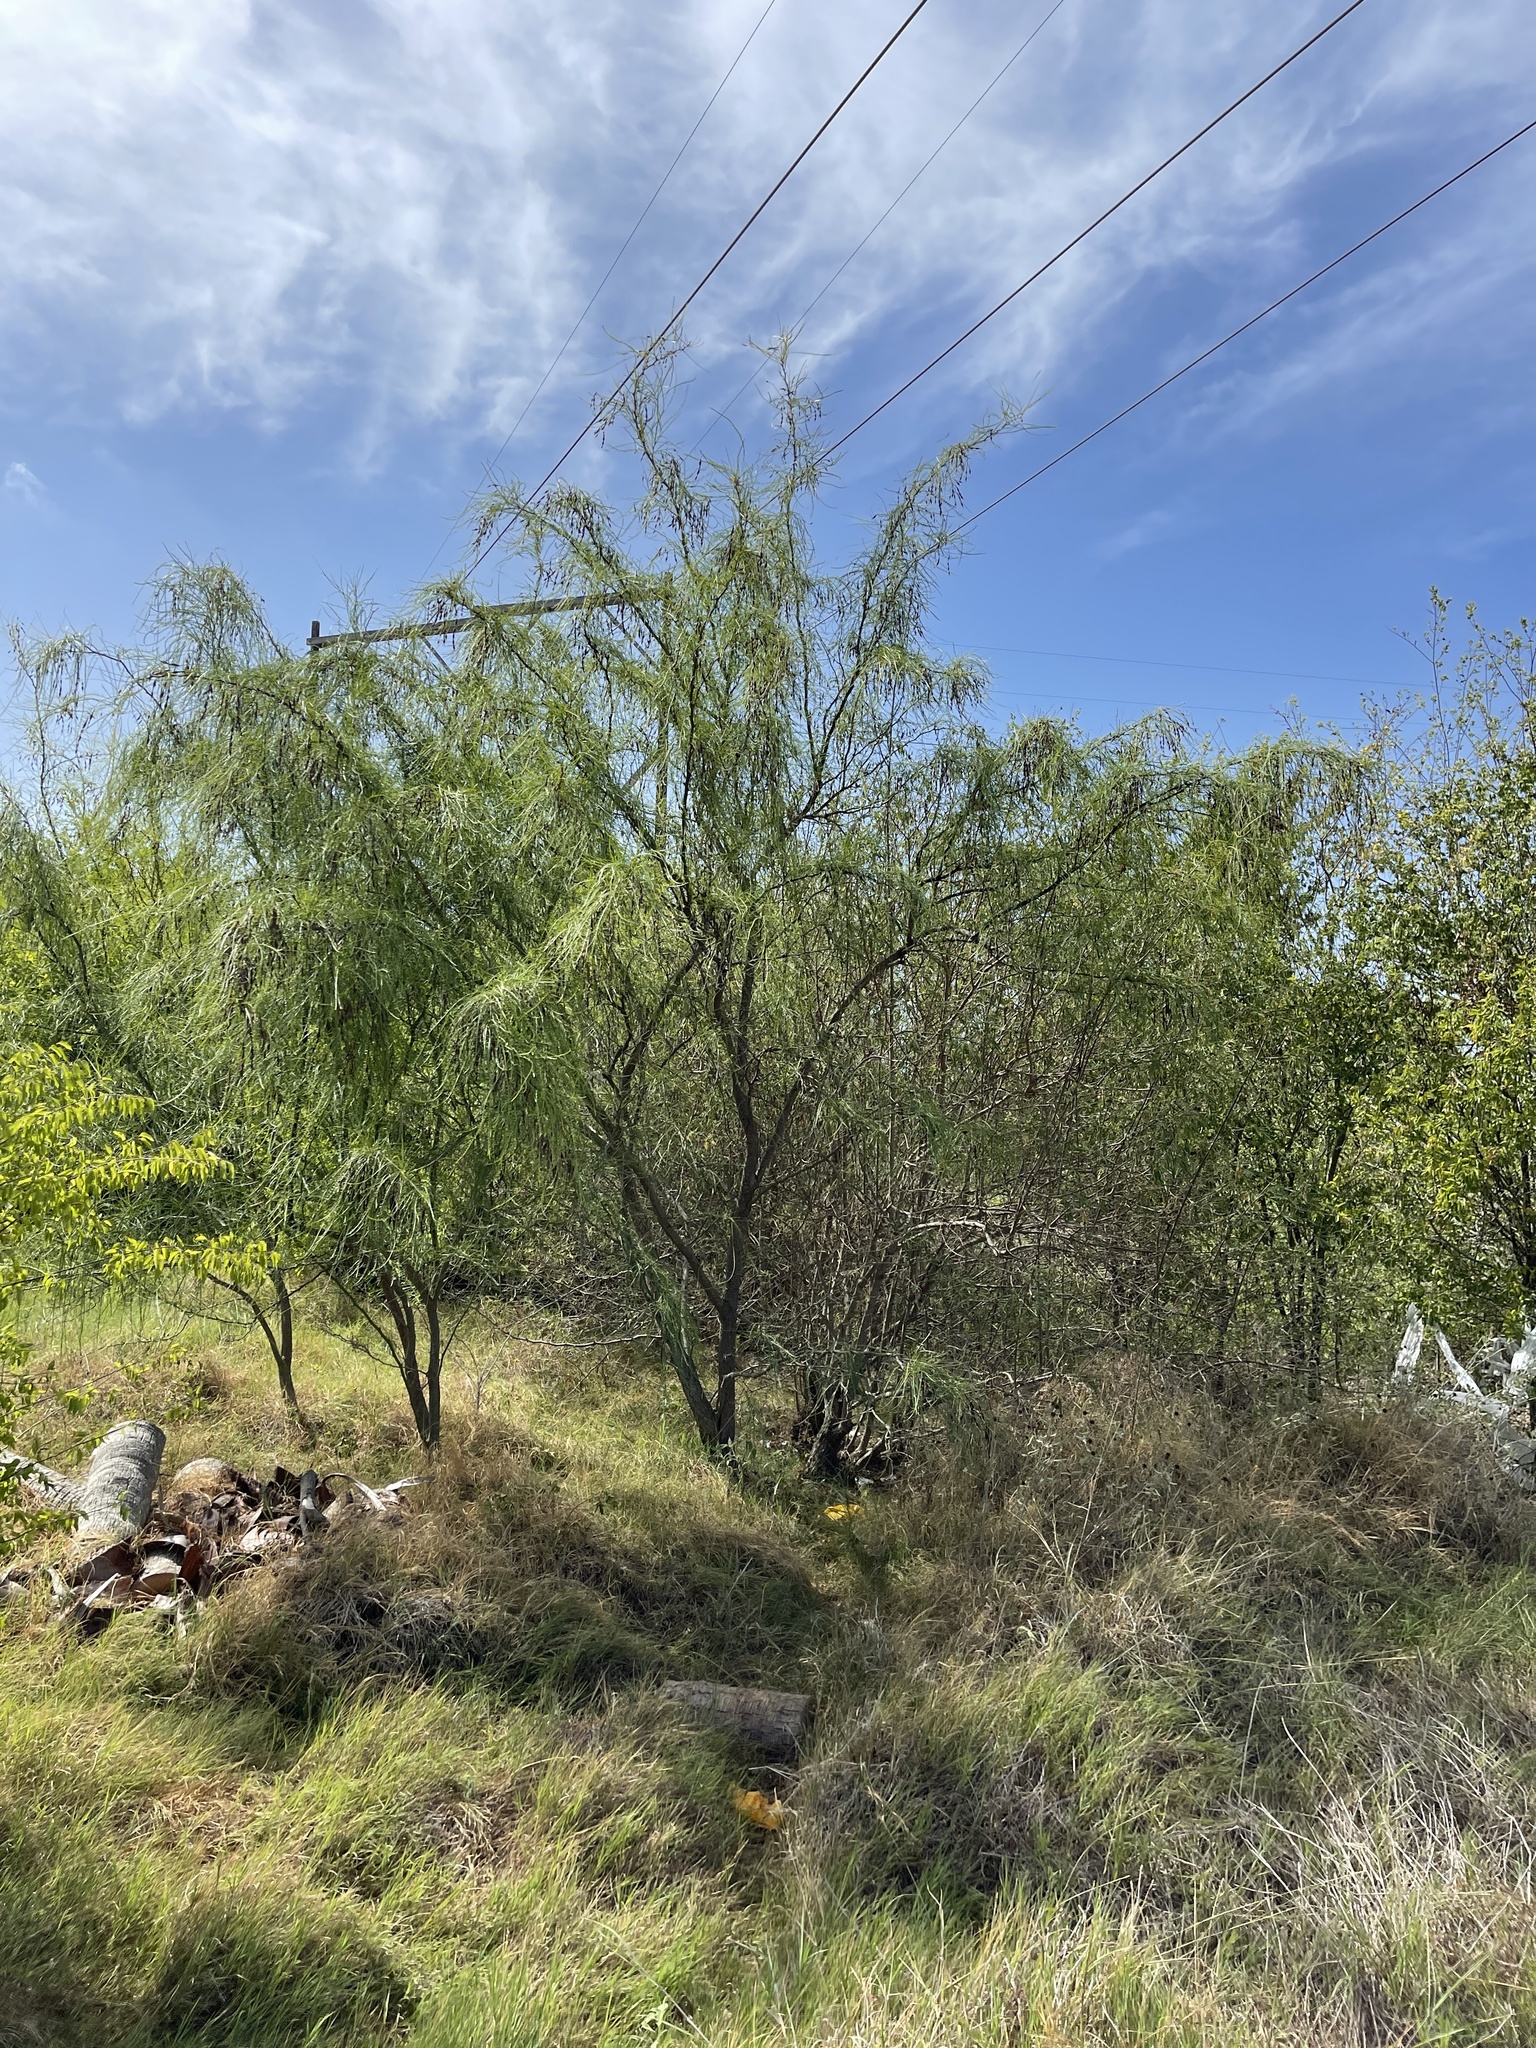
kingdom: Plantae
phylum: Tracheophyta
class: Magnoliopsida
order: Fabales
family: Fabaceae
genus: Parkinsonia
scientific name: Parkinsonia aculeata
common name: Jerusalem thorn
